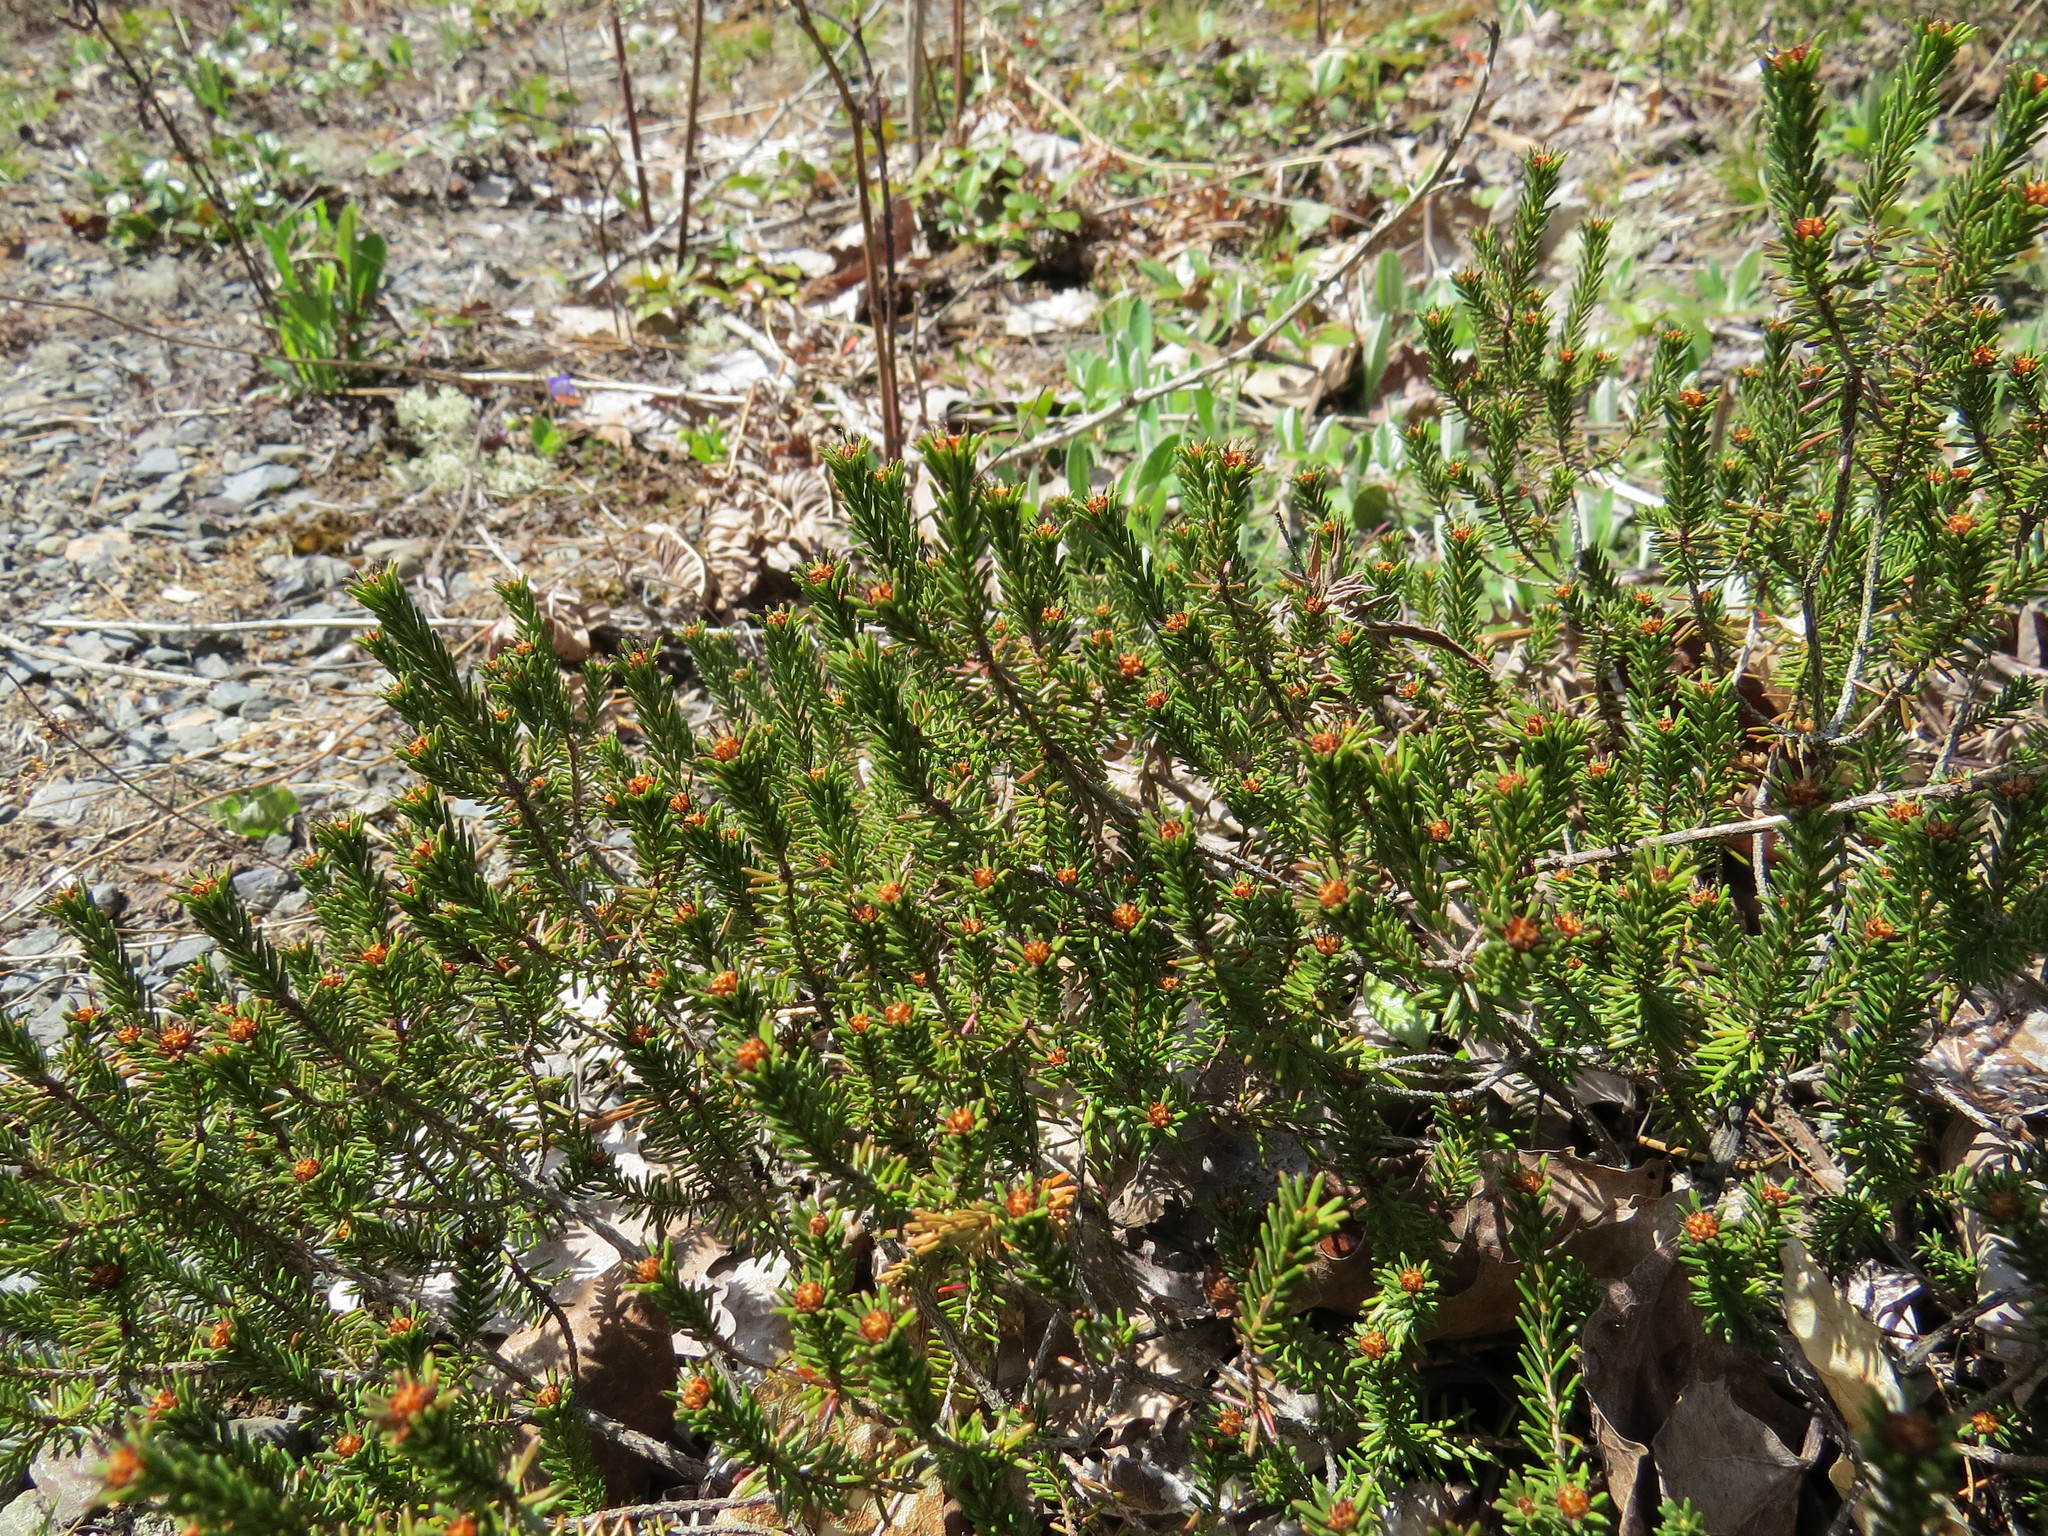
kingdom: Plantae
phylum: Tracheophyta
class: Magnoliopsida
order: Ericales
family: Ericaceae
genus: Corema
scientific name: Corema conradii
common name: Broom-crowberry
